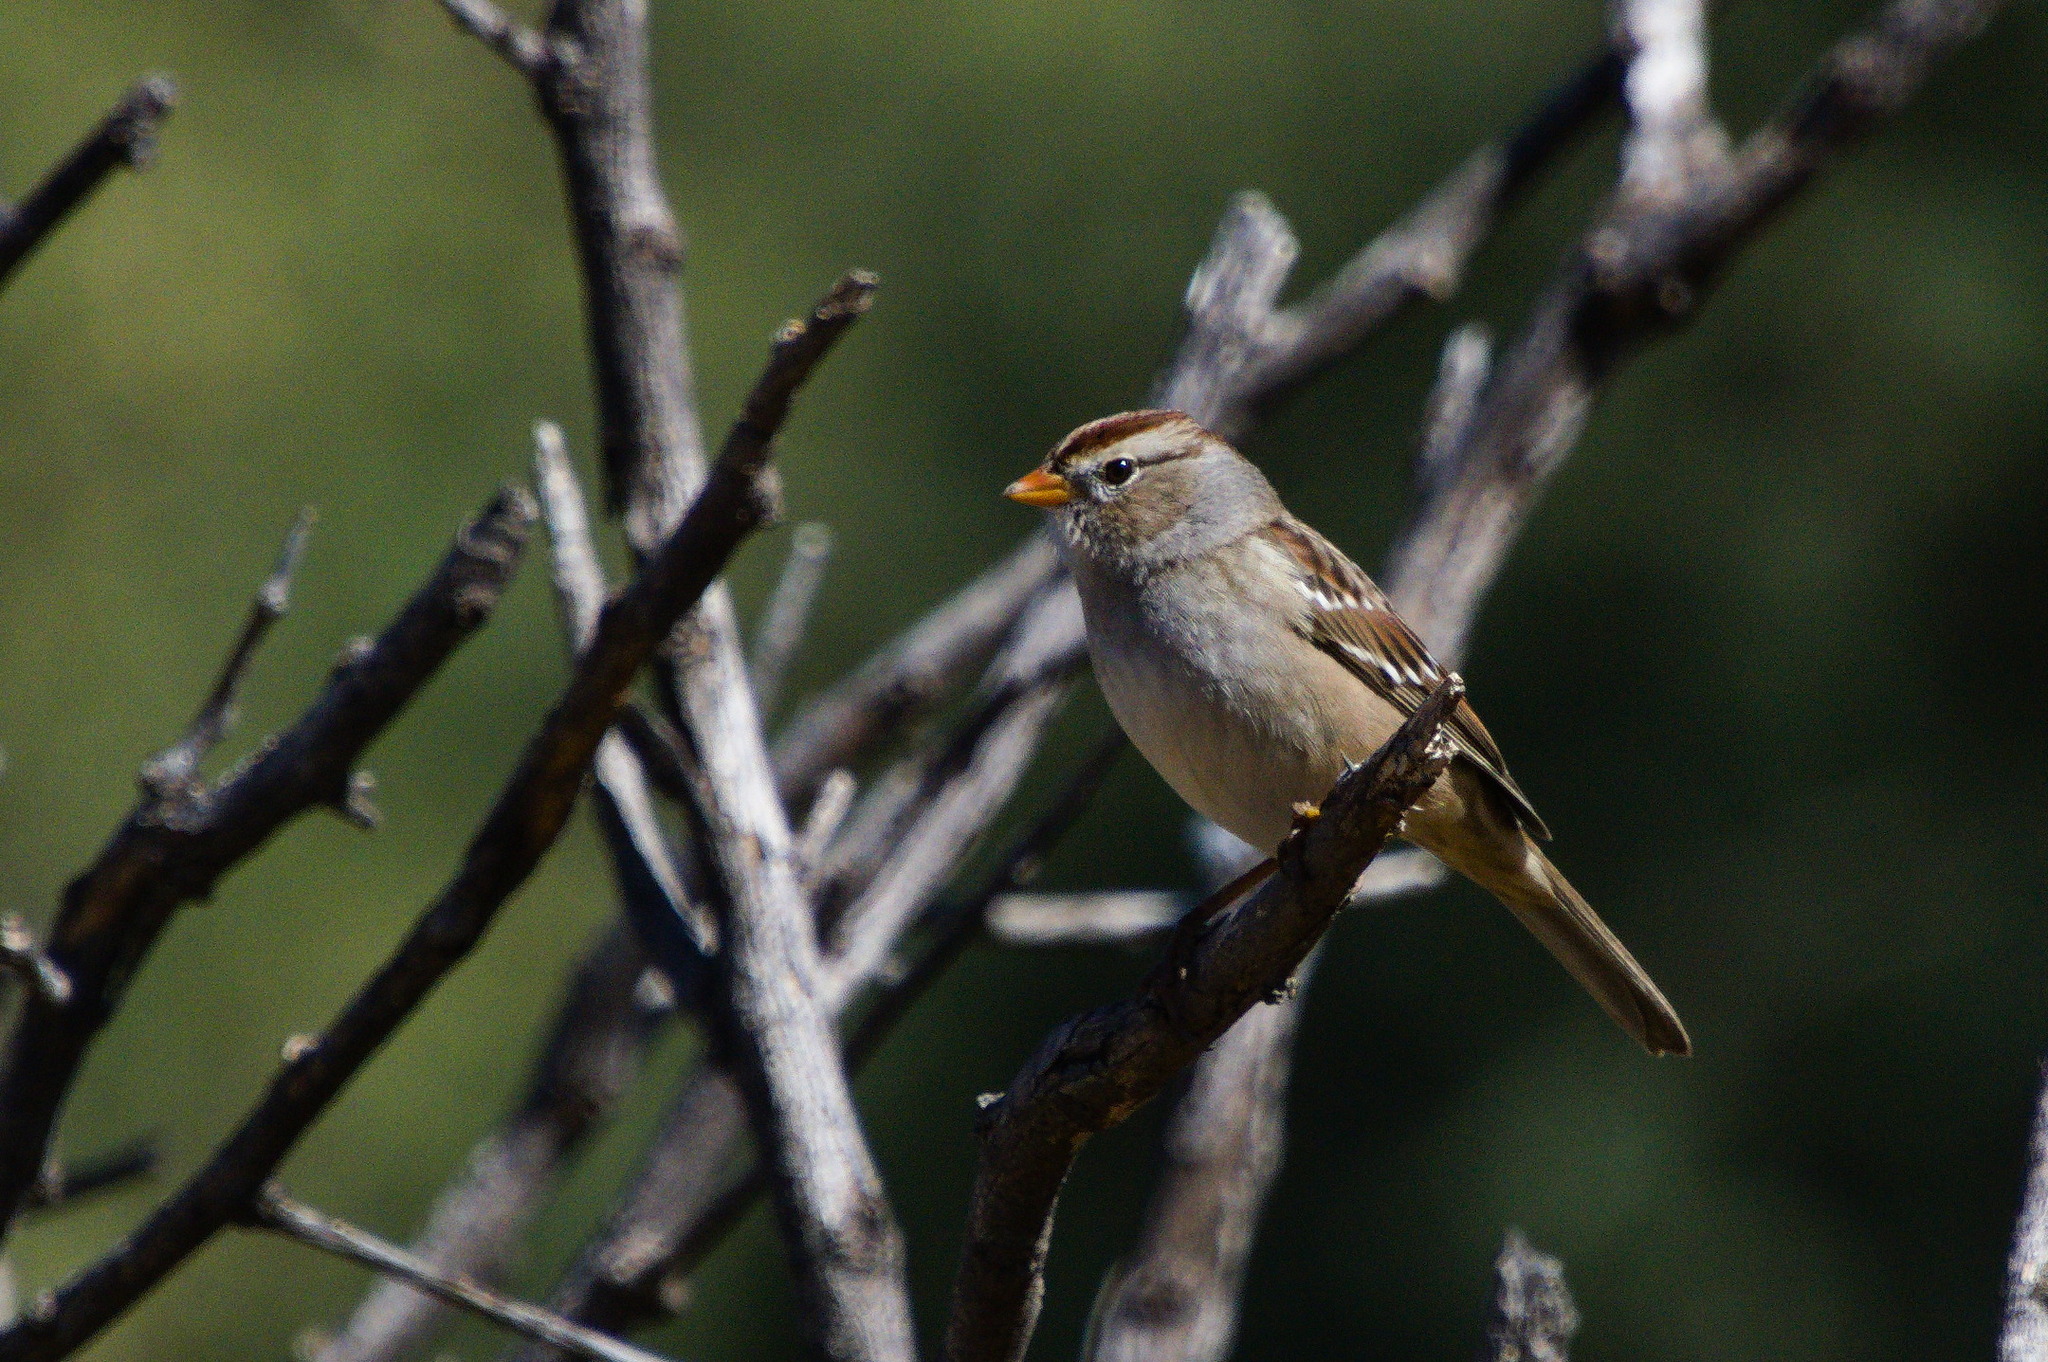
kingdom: Animalia
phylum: Chordata
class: Aves
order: Passeriformes
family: Passerellidae
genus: Zonotrichia
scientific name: Zonotrichia leucophrys
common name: White-crowned sparrow
